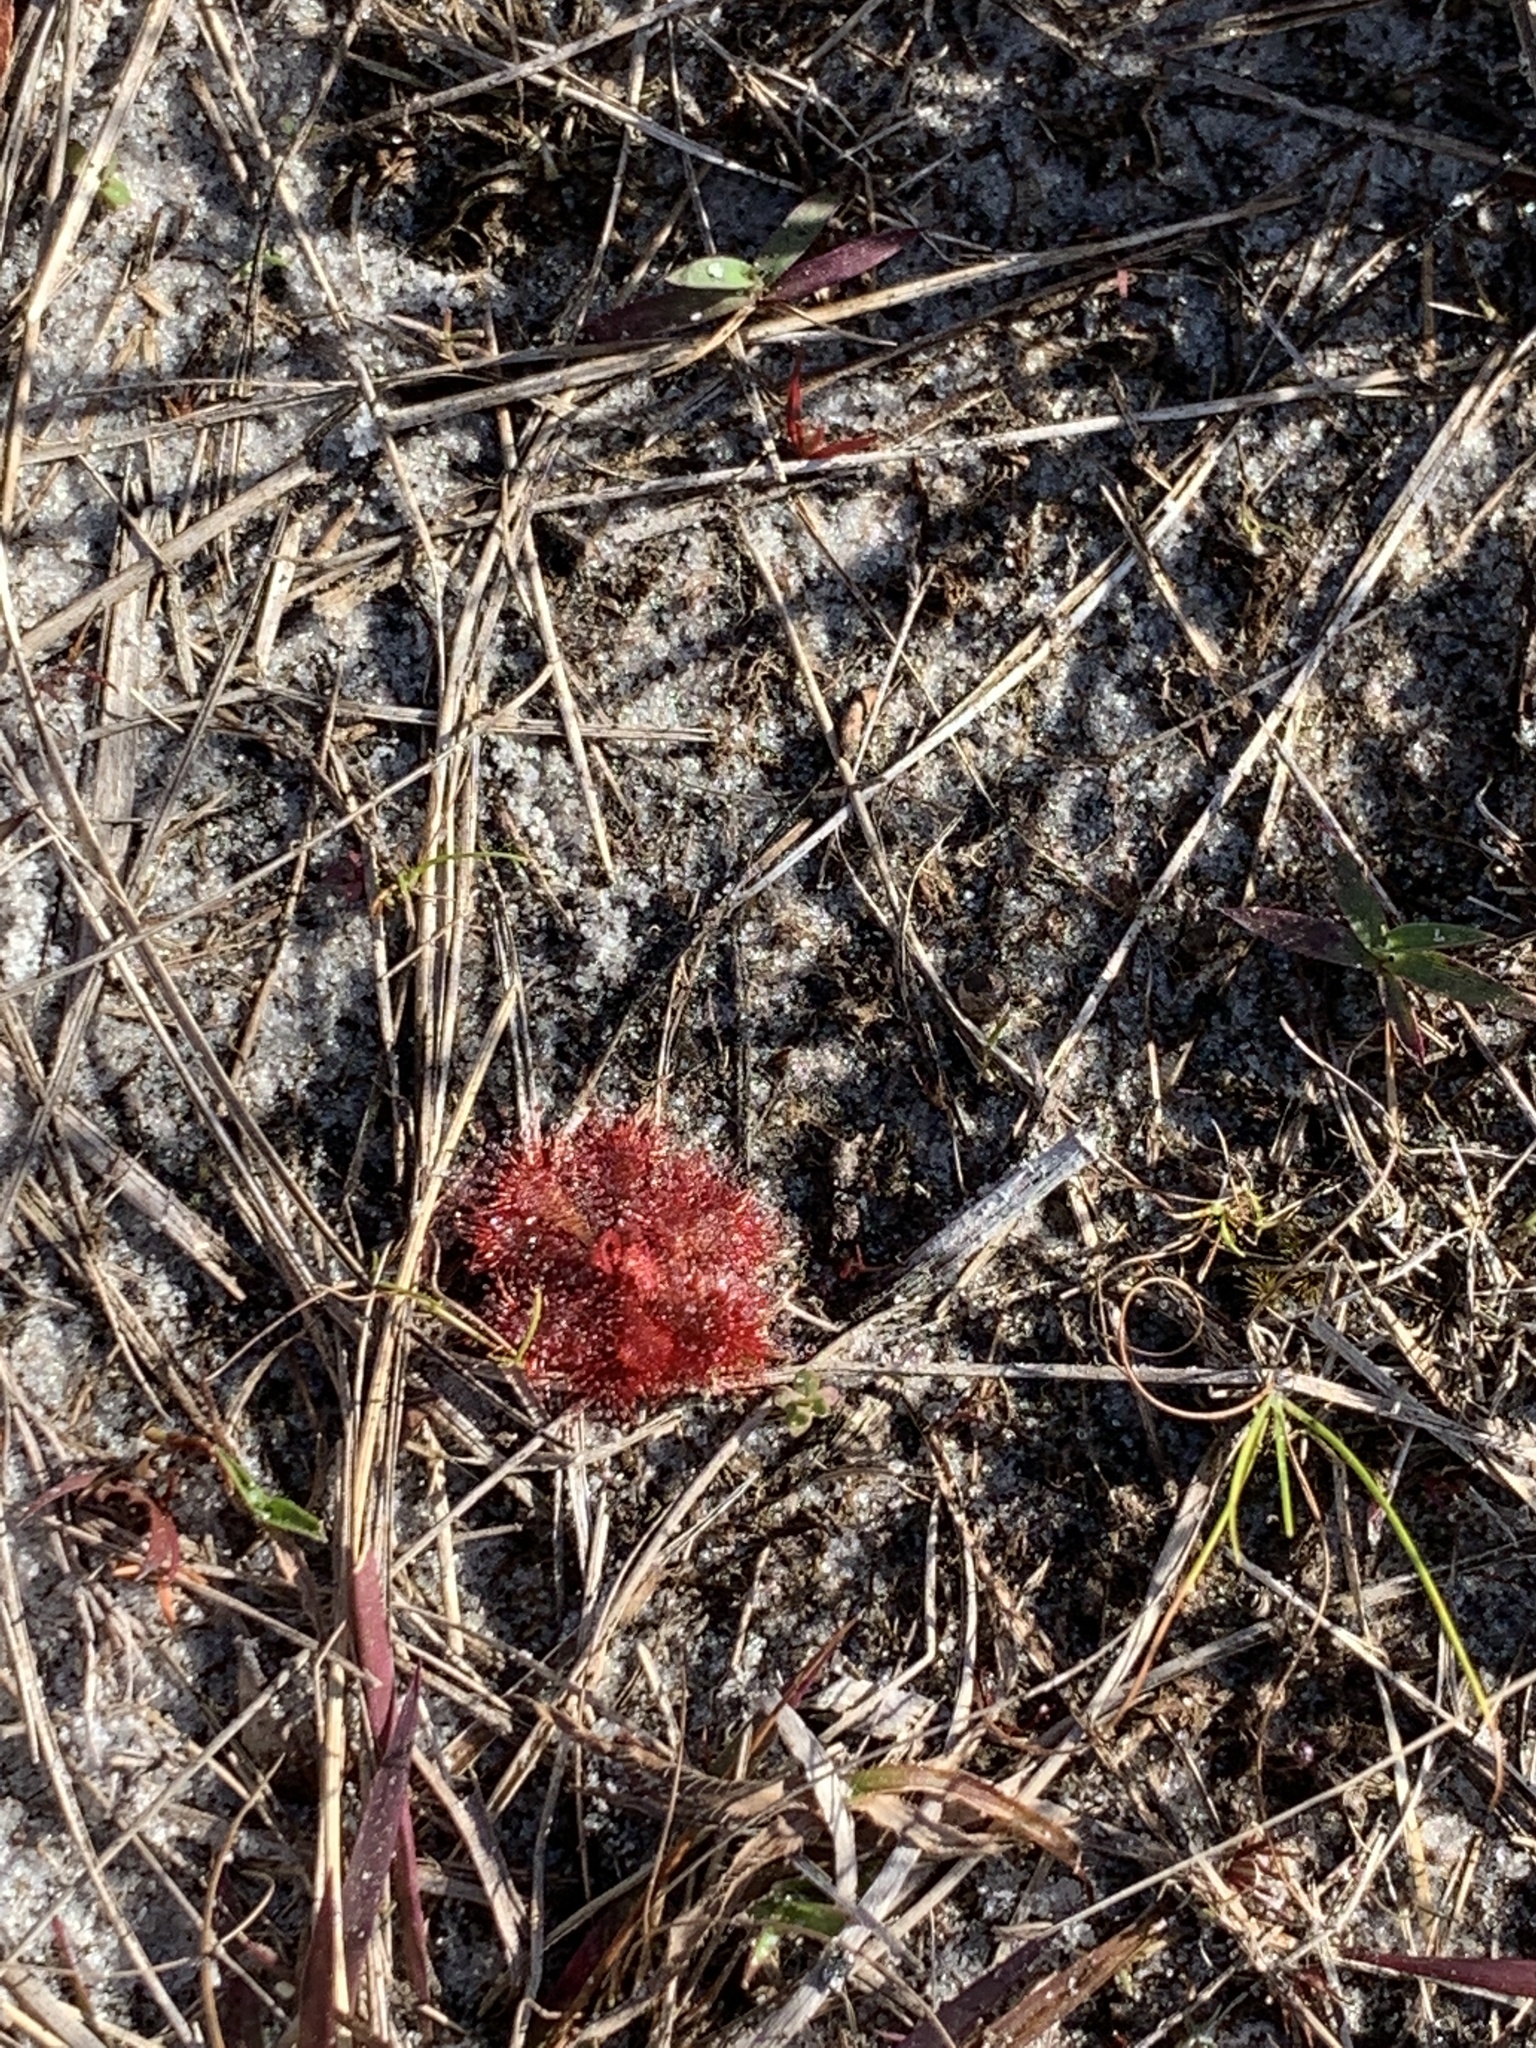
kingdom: Plantae
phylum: Tracheophyta
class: Magnoliopsida
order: Caryophyllales
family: Droseraceae
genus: Drosera
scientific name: Drosera brevifolia
